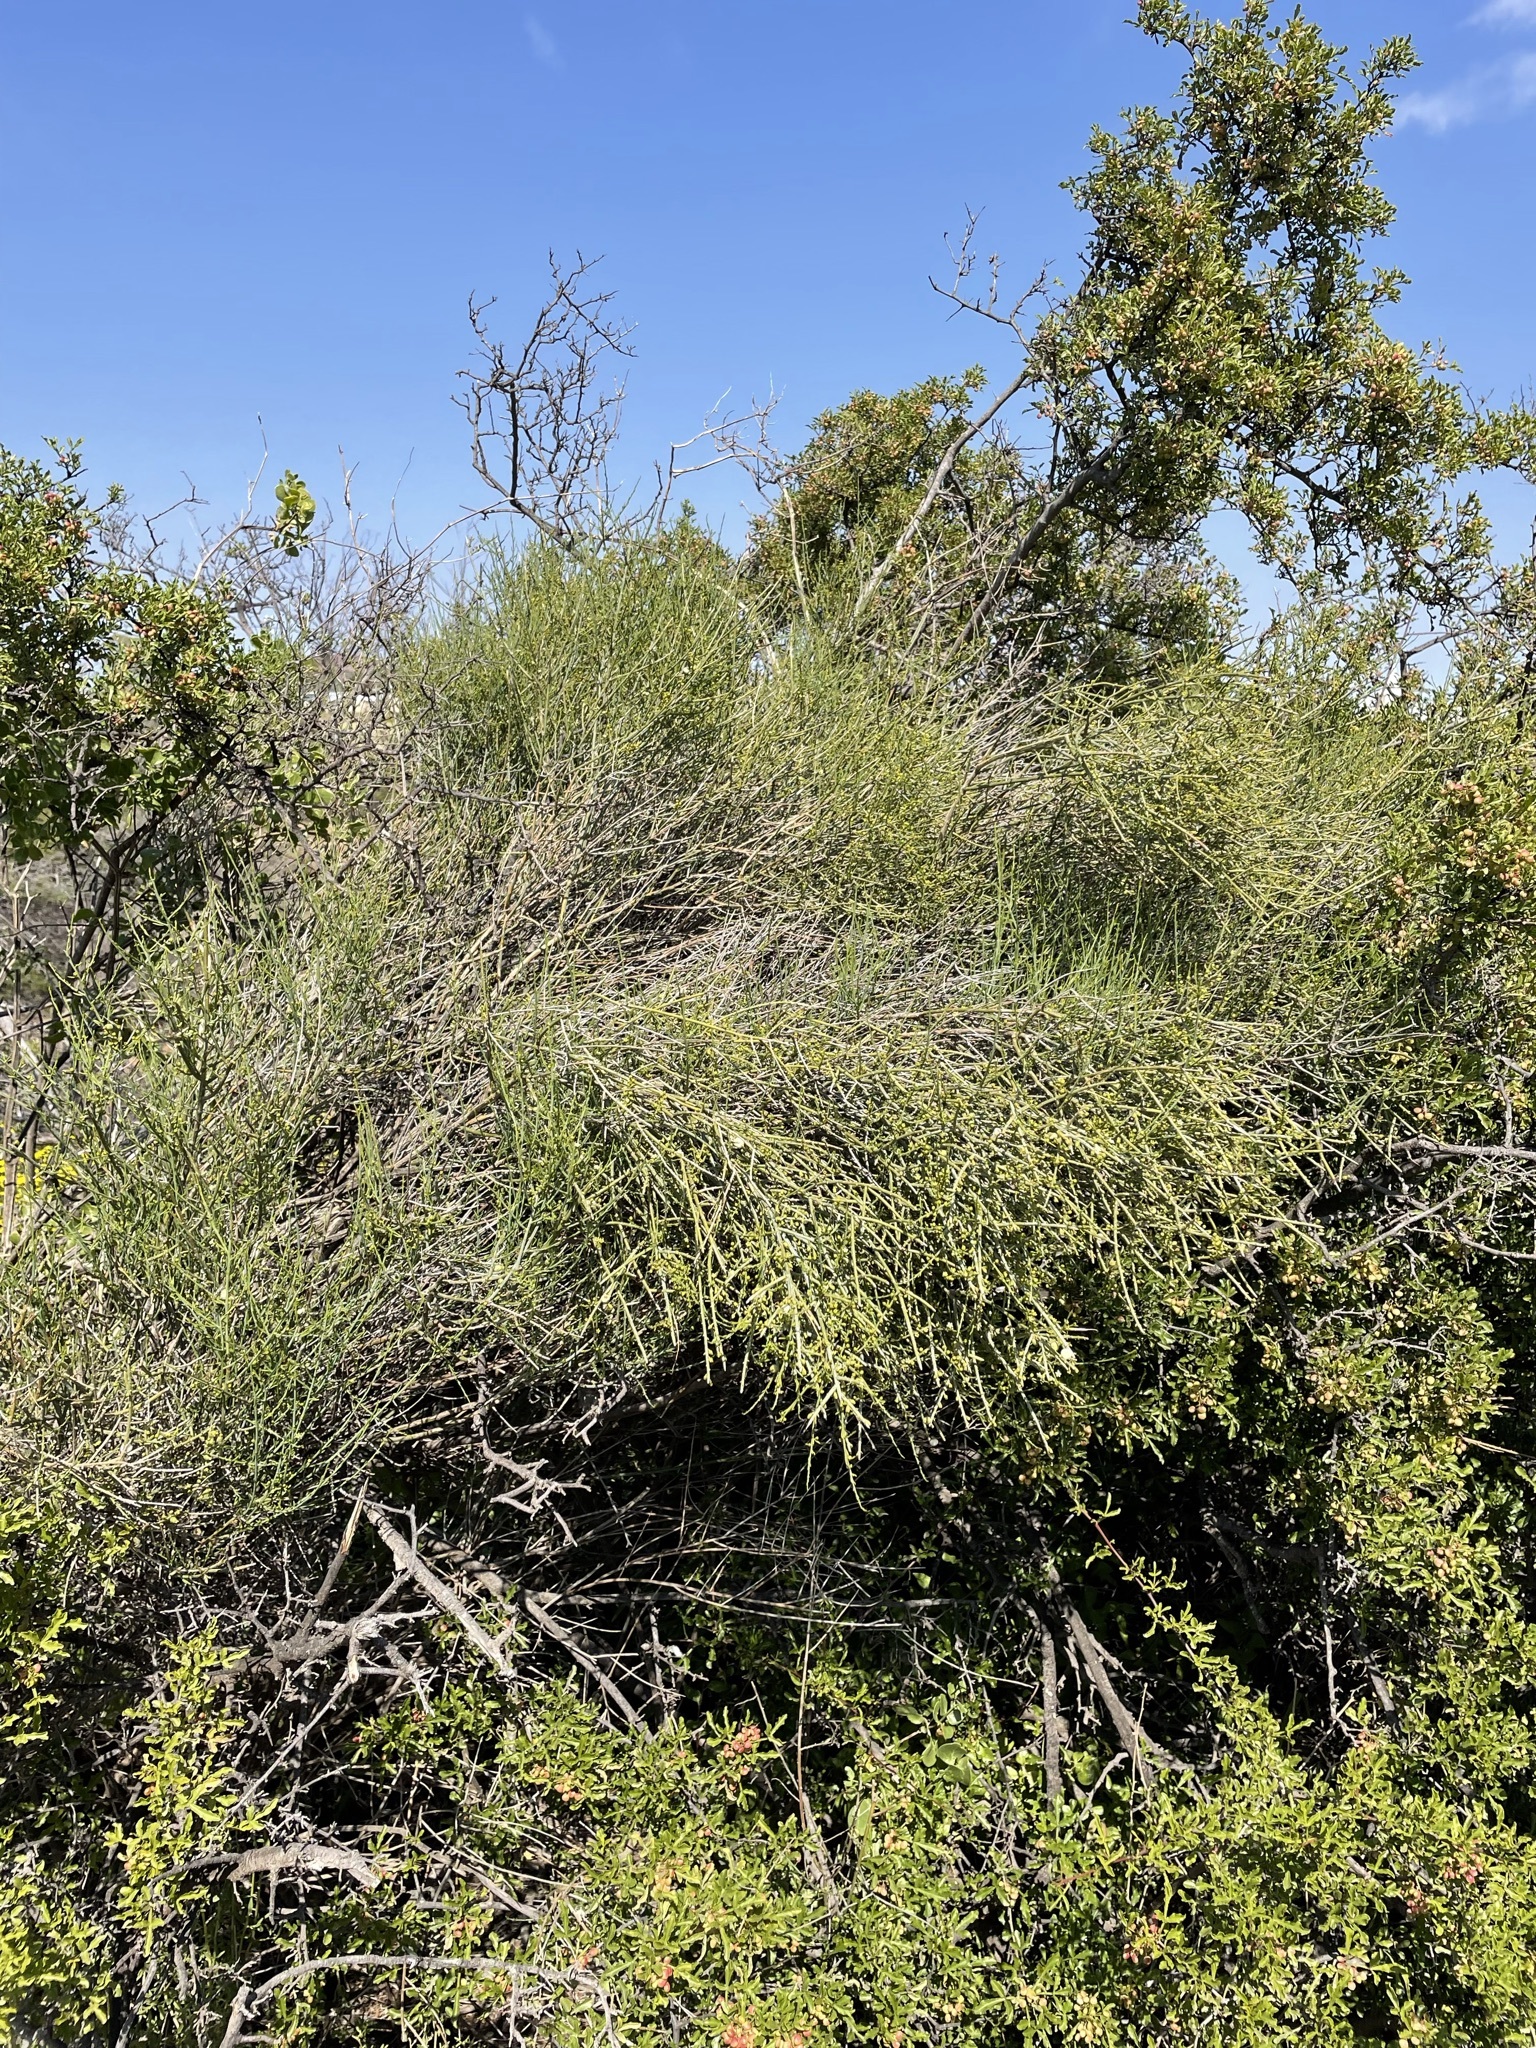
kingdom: Plantae
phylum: Tracheophyta
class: Magnoliopsida
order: Santalales
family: Thesiaceae
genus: Lacomucinaea
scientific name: Lacomucinaea lineata
